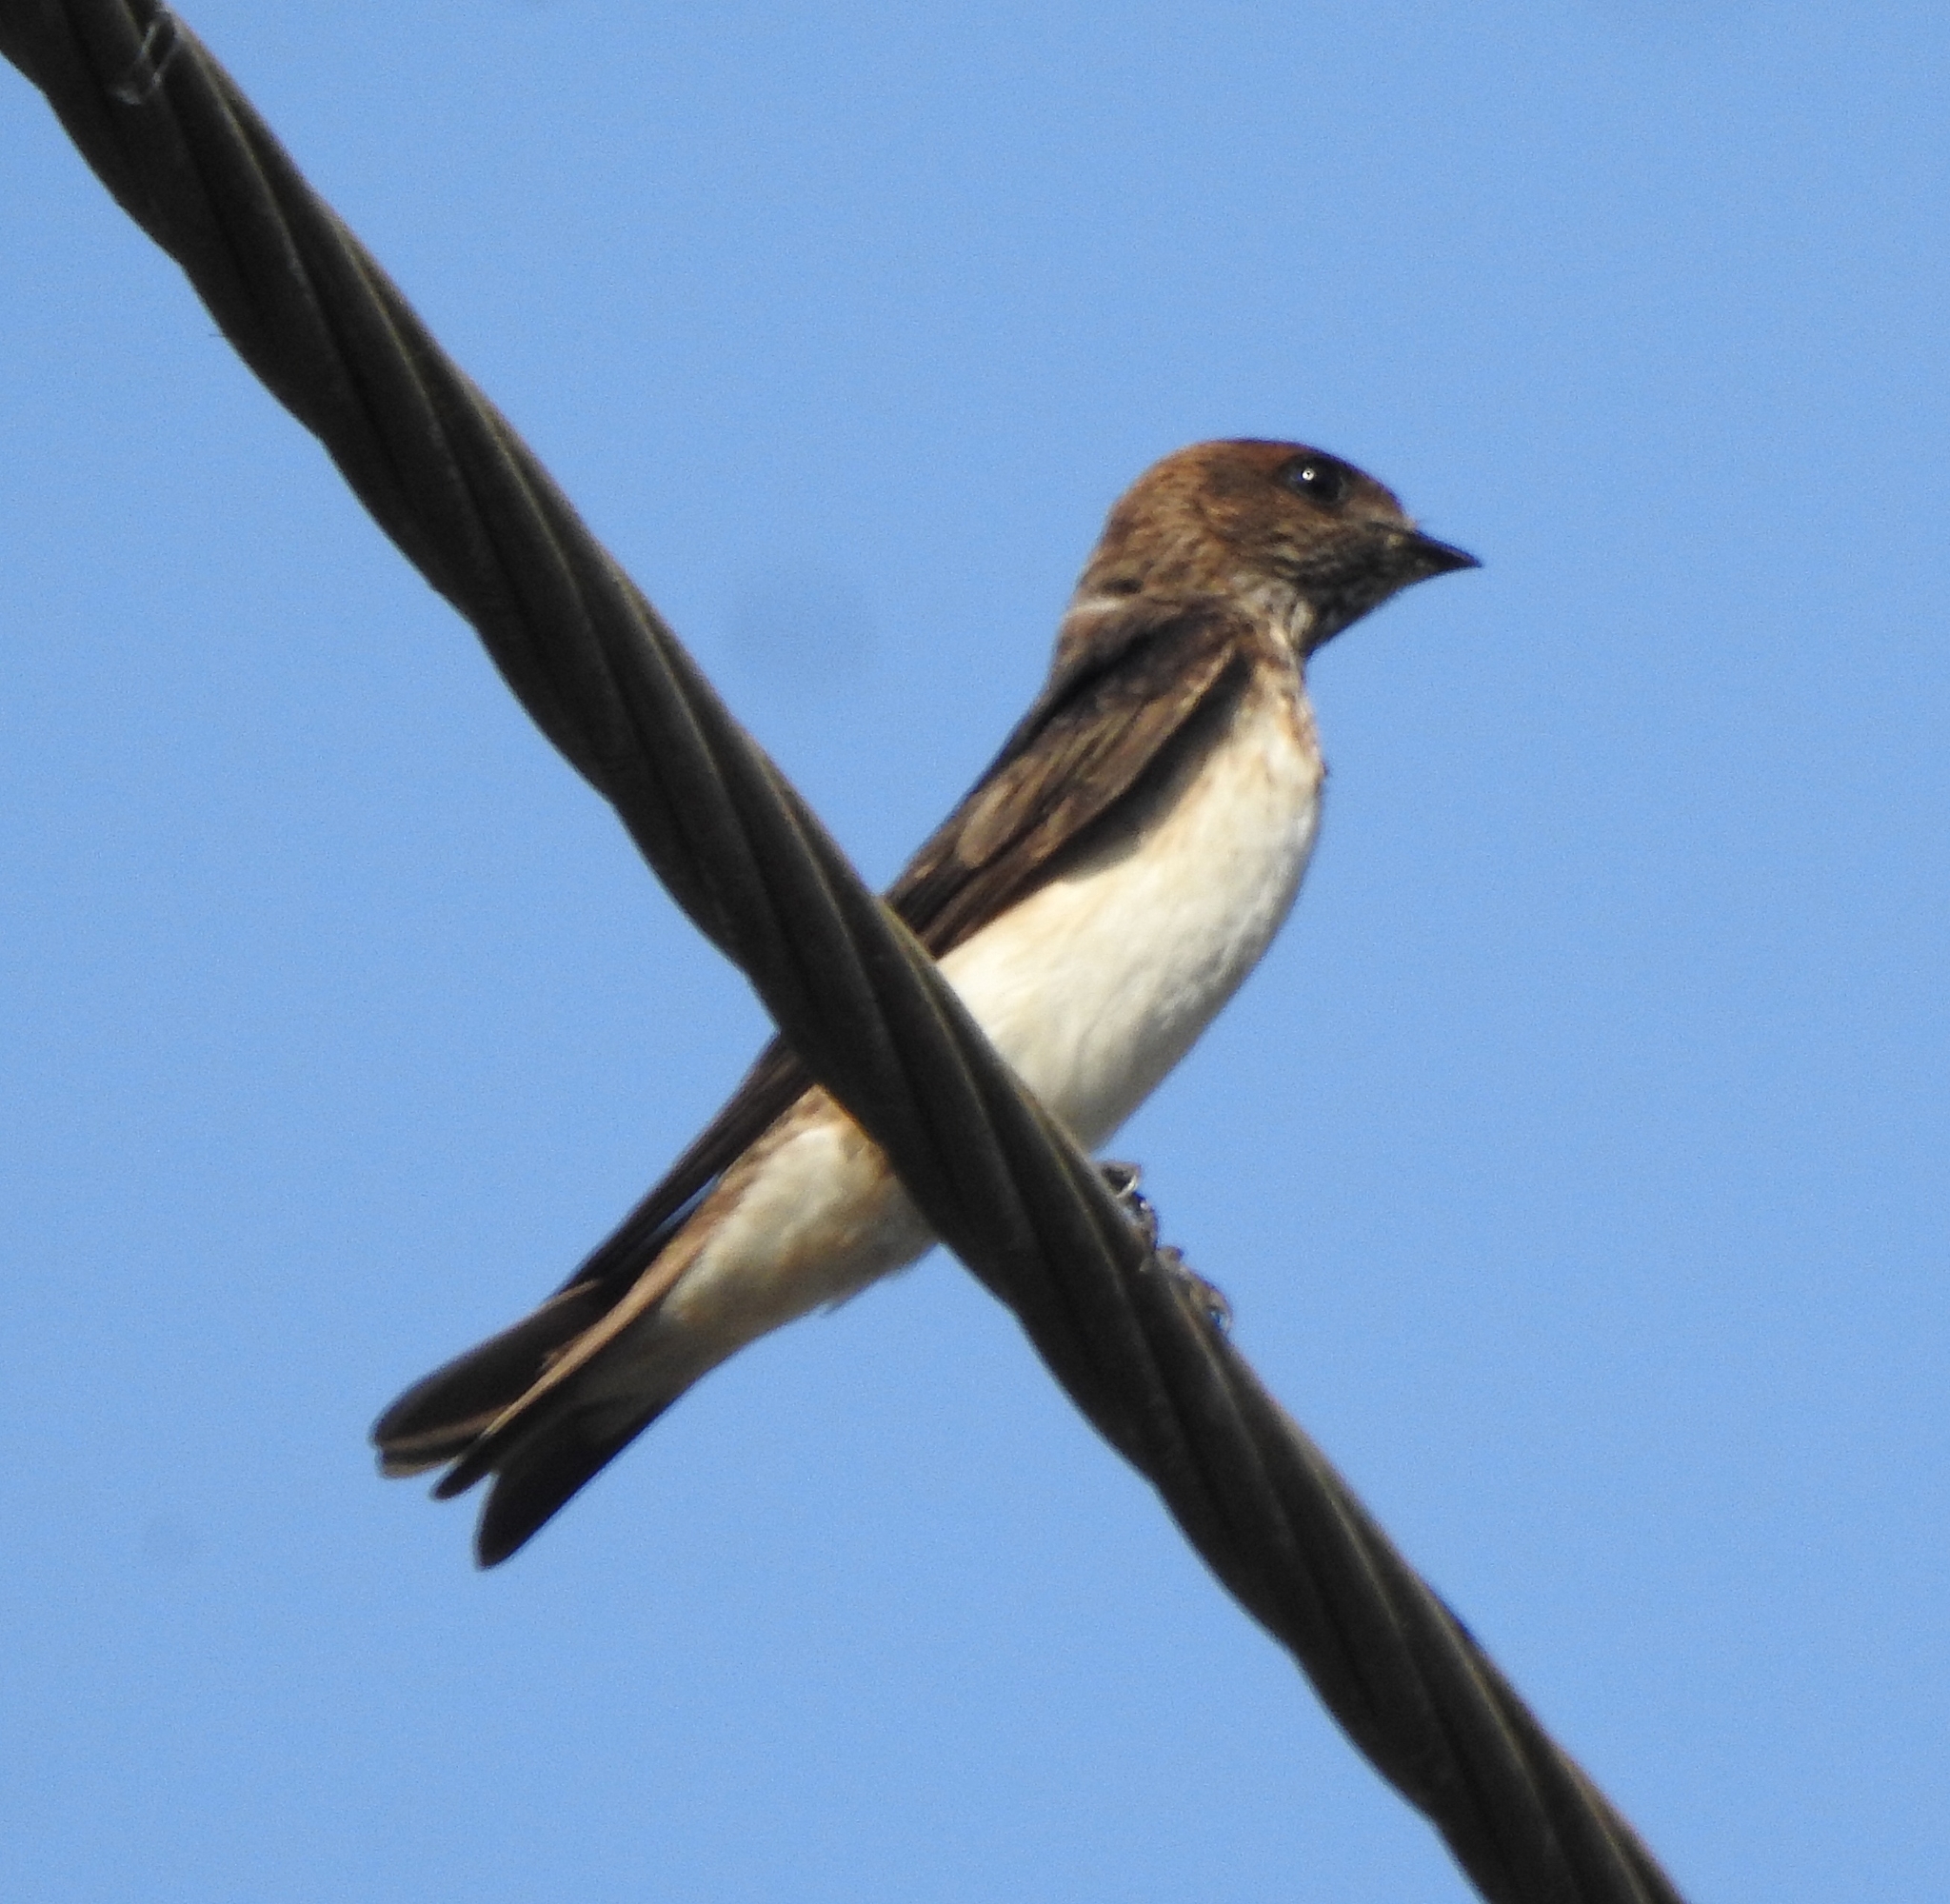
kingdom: Animalia
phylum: Chordata
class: Aves
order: Passeriformes
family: Hirundinidae
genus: Petrochelidon
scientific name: Petrochelidon fluvicola
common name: Streak-throated swallow
